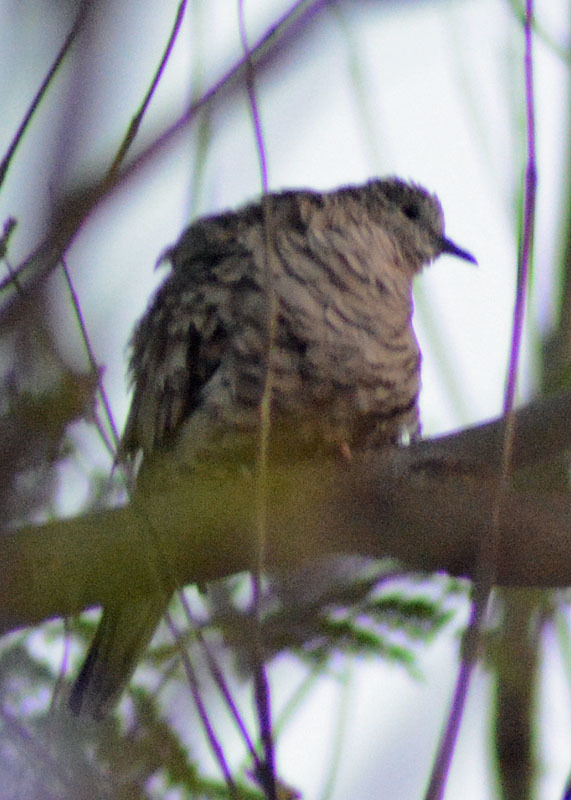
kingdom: Animalia
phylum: Chordata
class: Aves
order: Columbiformes
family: Columbidae
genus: Columbina
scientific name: Columbina inca
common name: Inca dove
